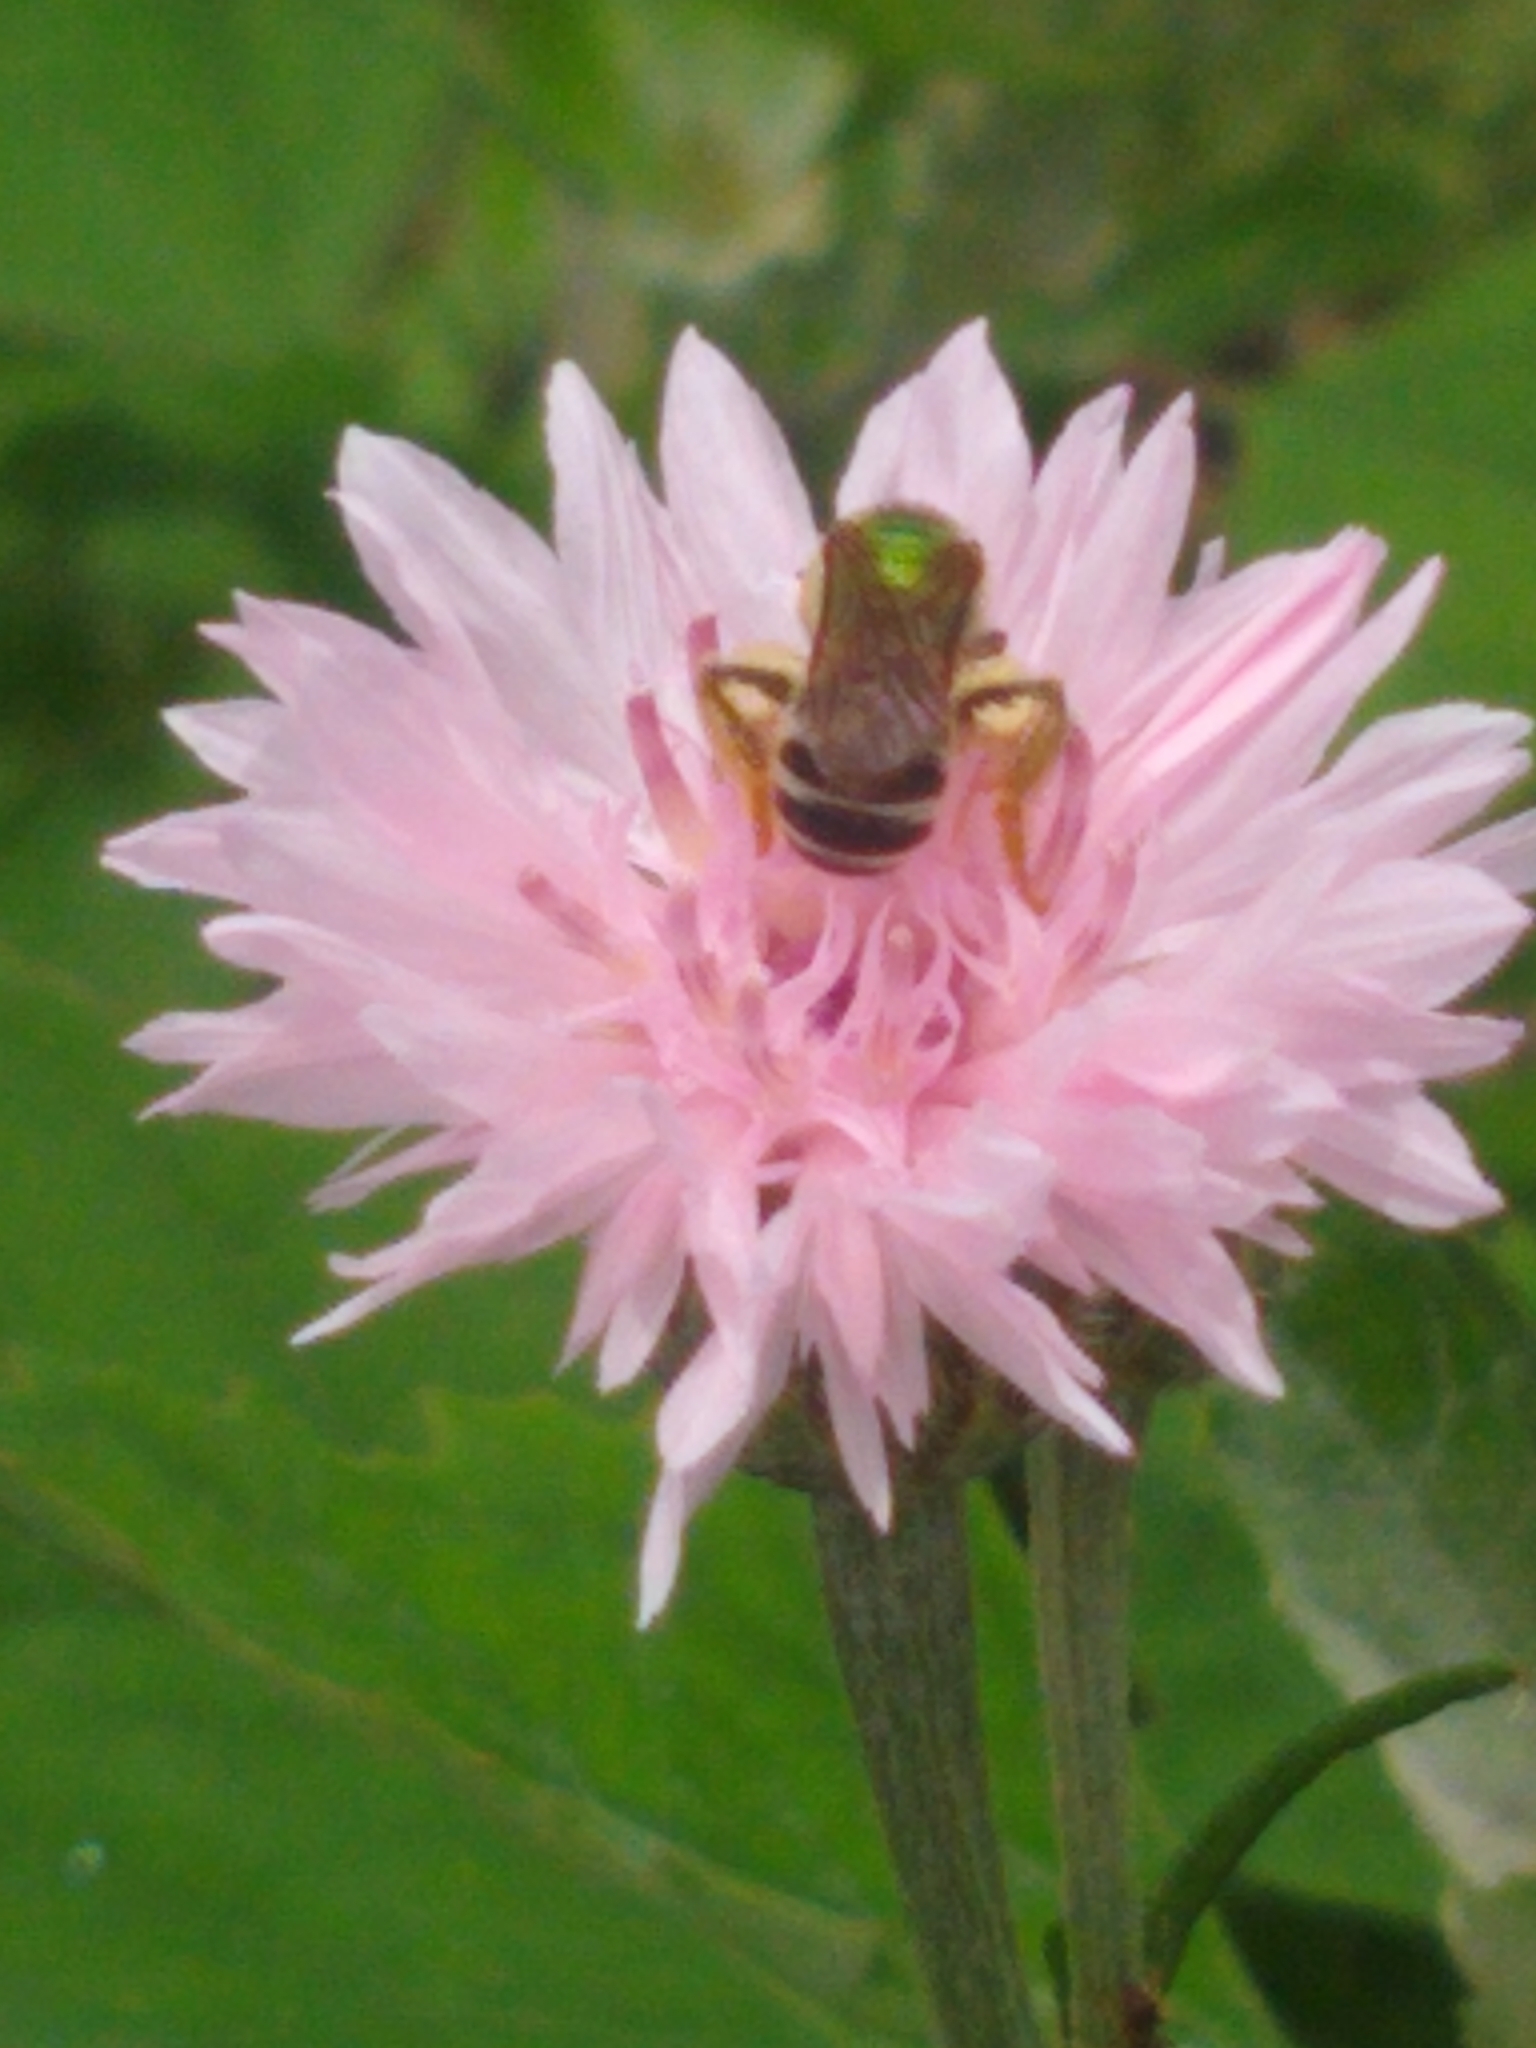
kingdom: Animalia
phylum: Arthropoda
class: Insecta
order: Hymenoptera
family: Halictidae
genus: Agapostemon
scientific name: Agapostemon virescens
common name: Bicolored striped sweat bee
